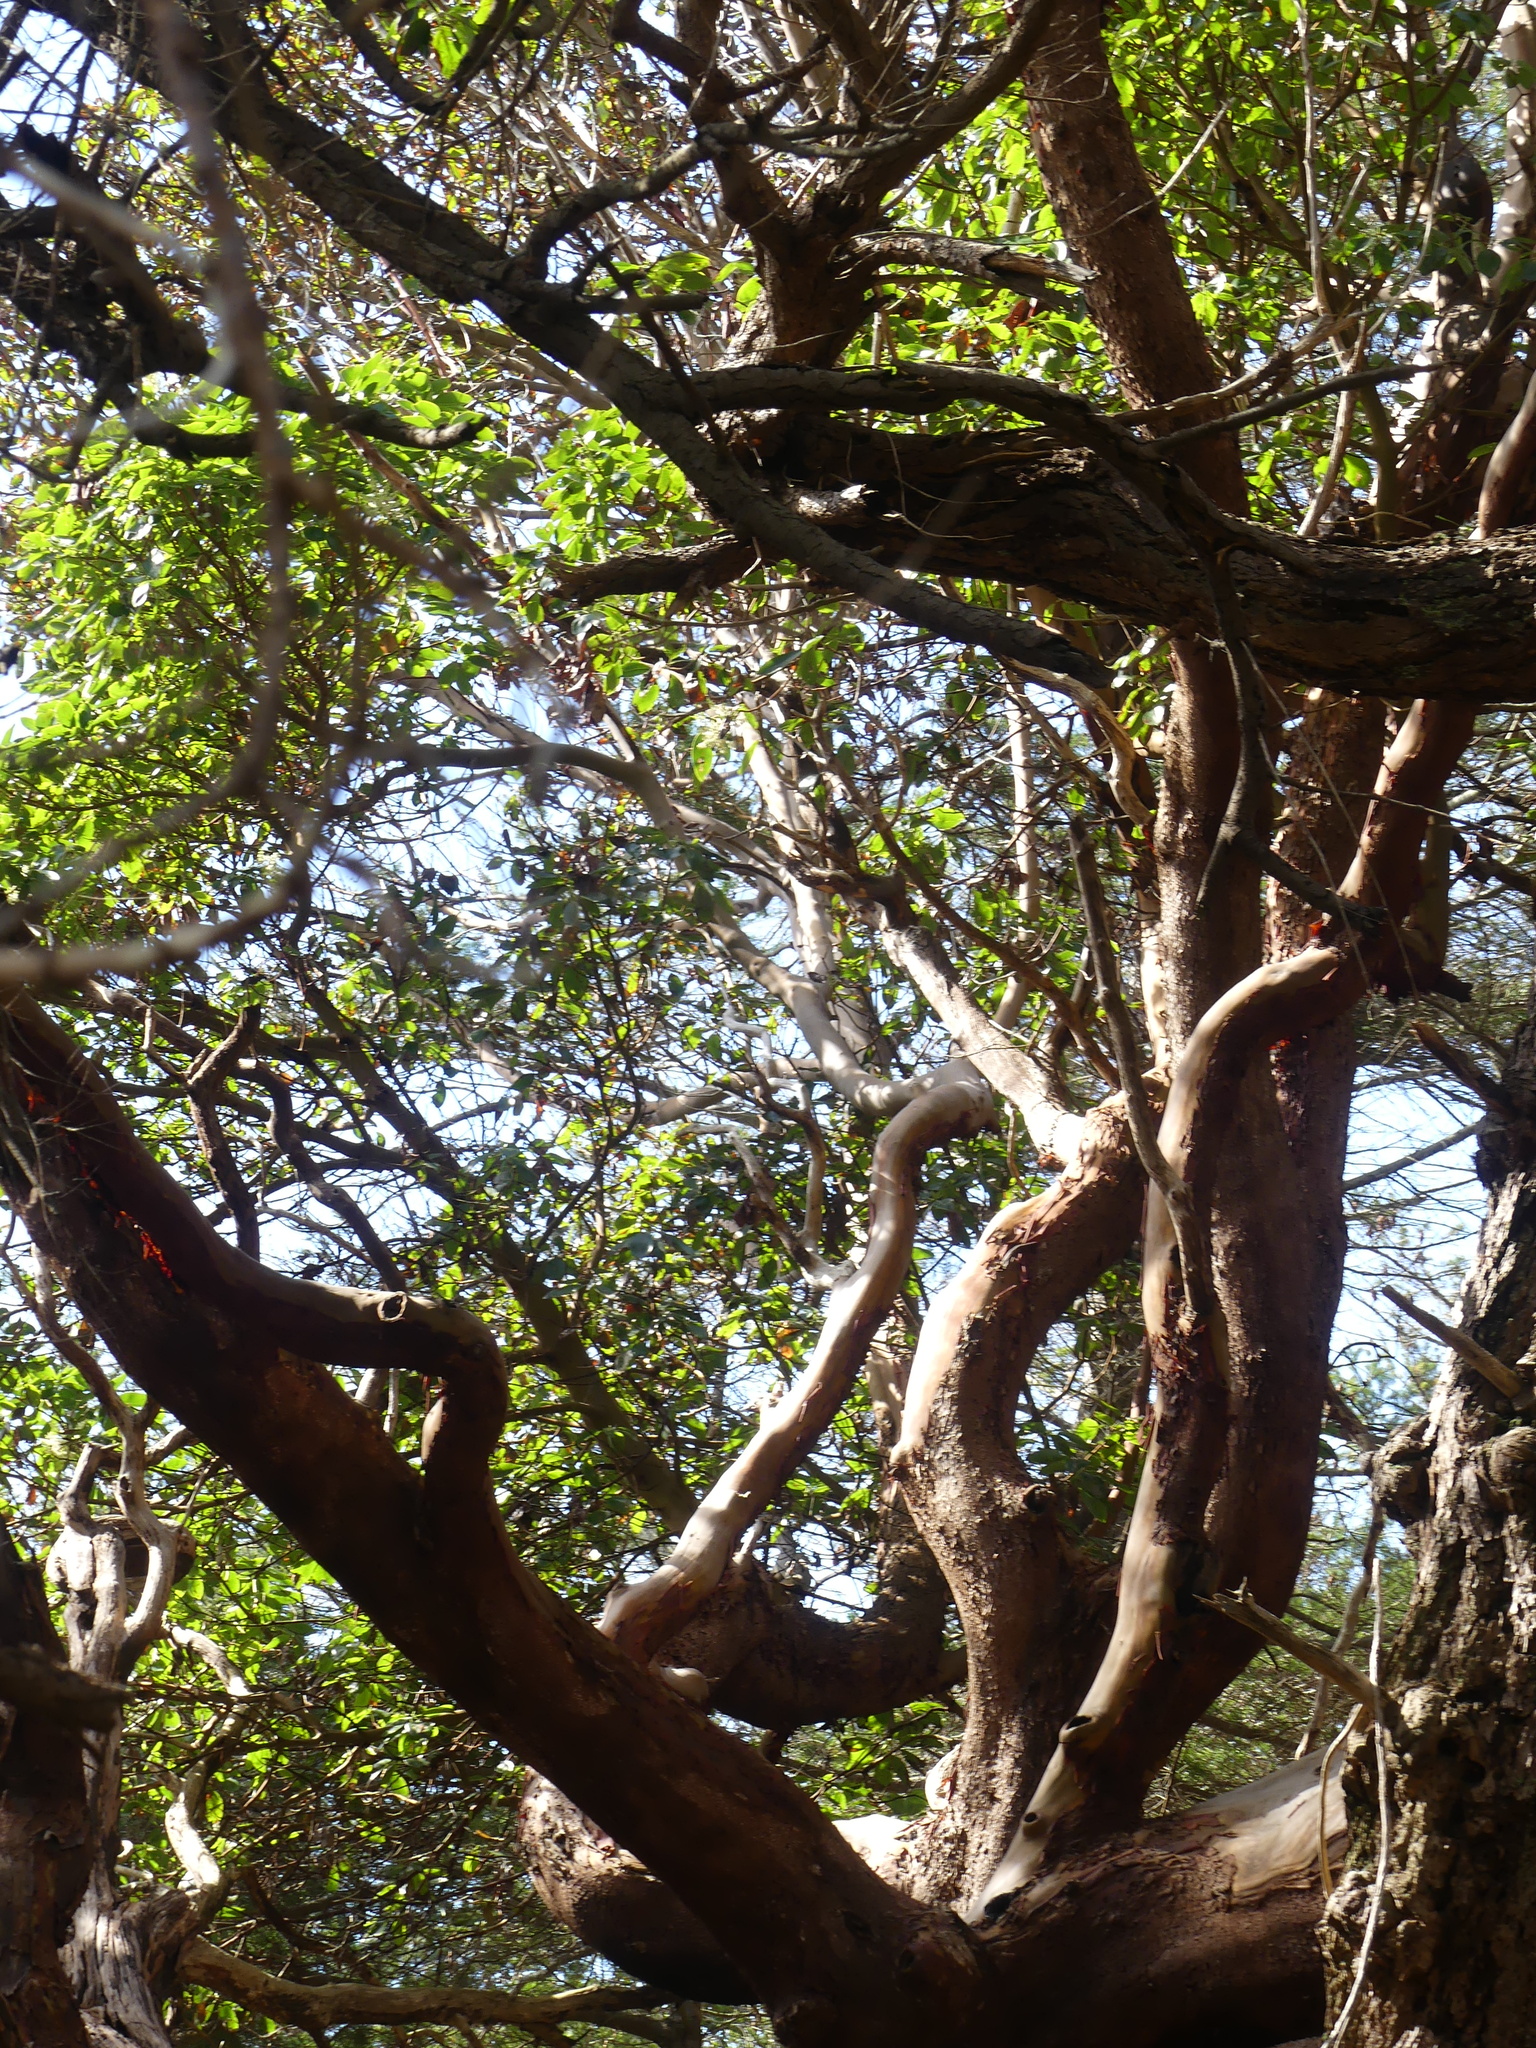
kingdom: Plantae
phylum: Tracheophyta
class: Magnoliopsida
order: Ericales
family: Ericaceae
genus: Arbutus
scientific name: Arbutus menziesii
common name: Pacific madrone
